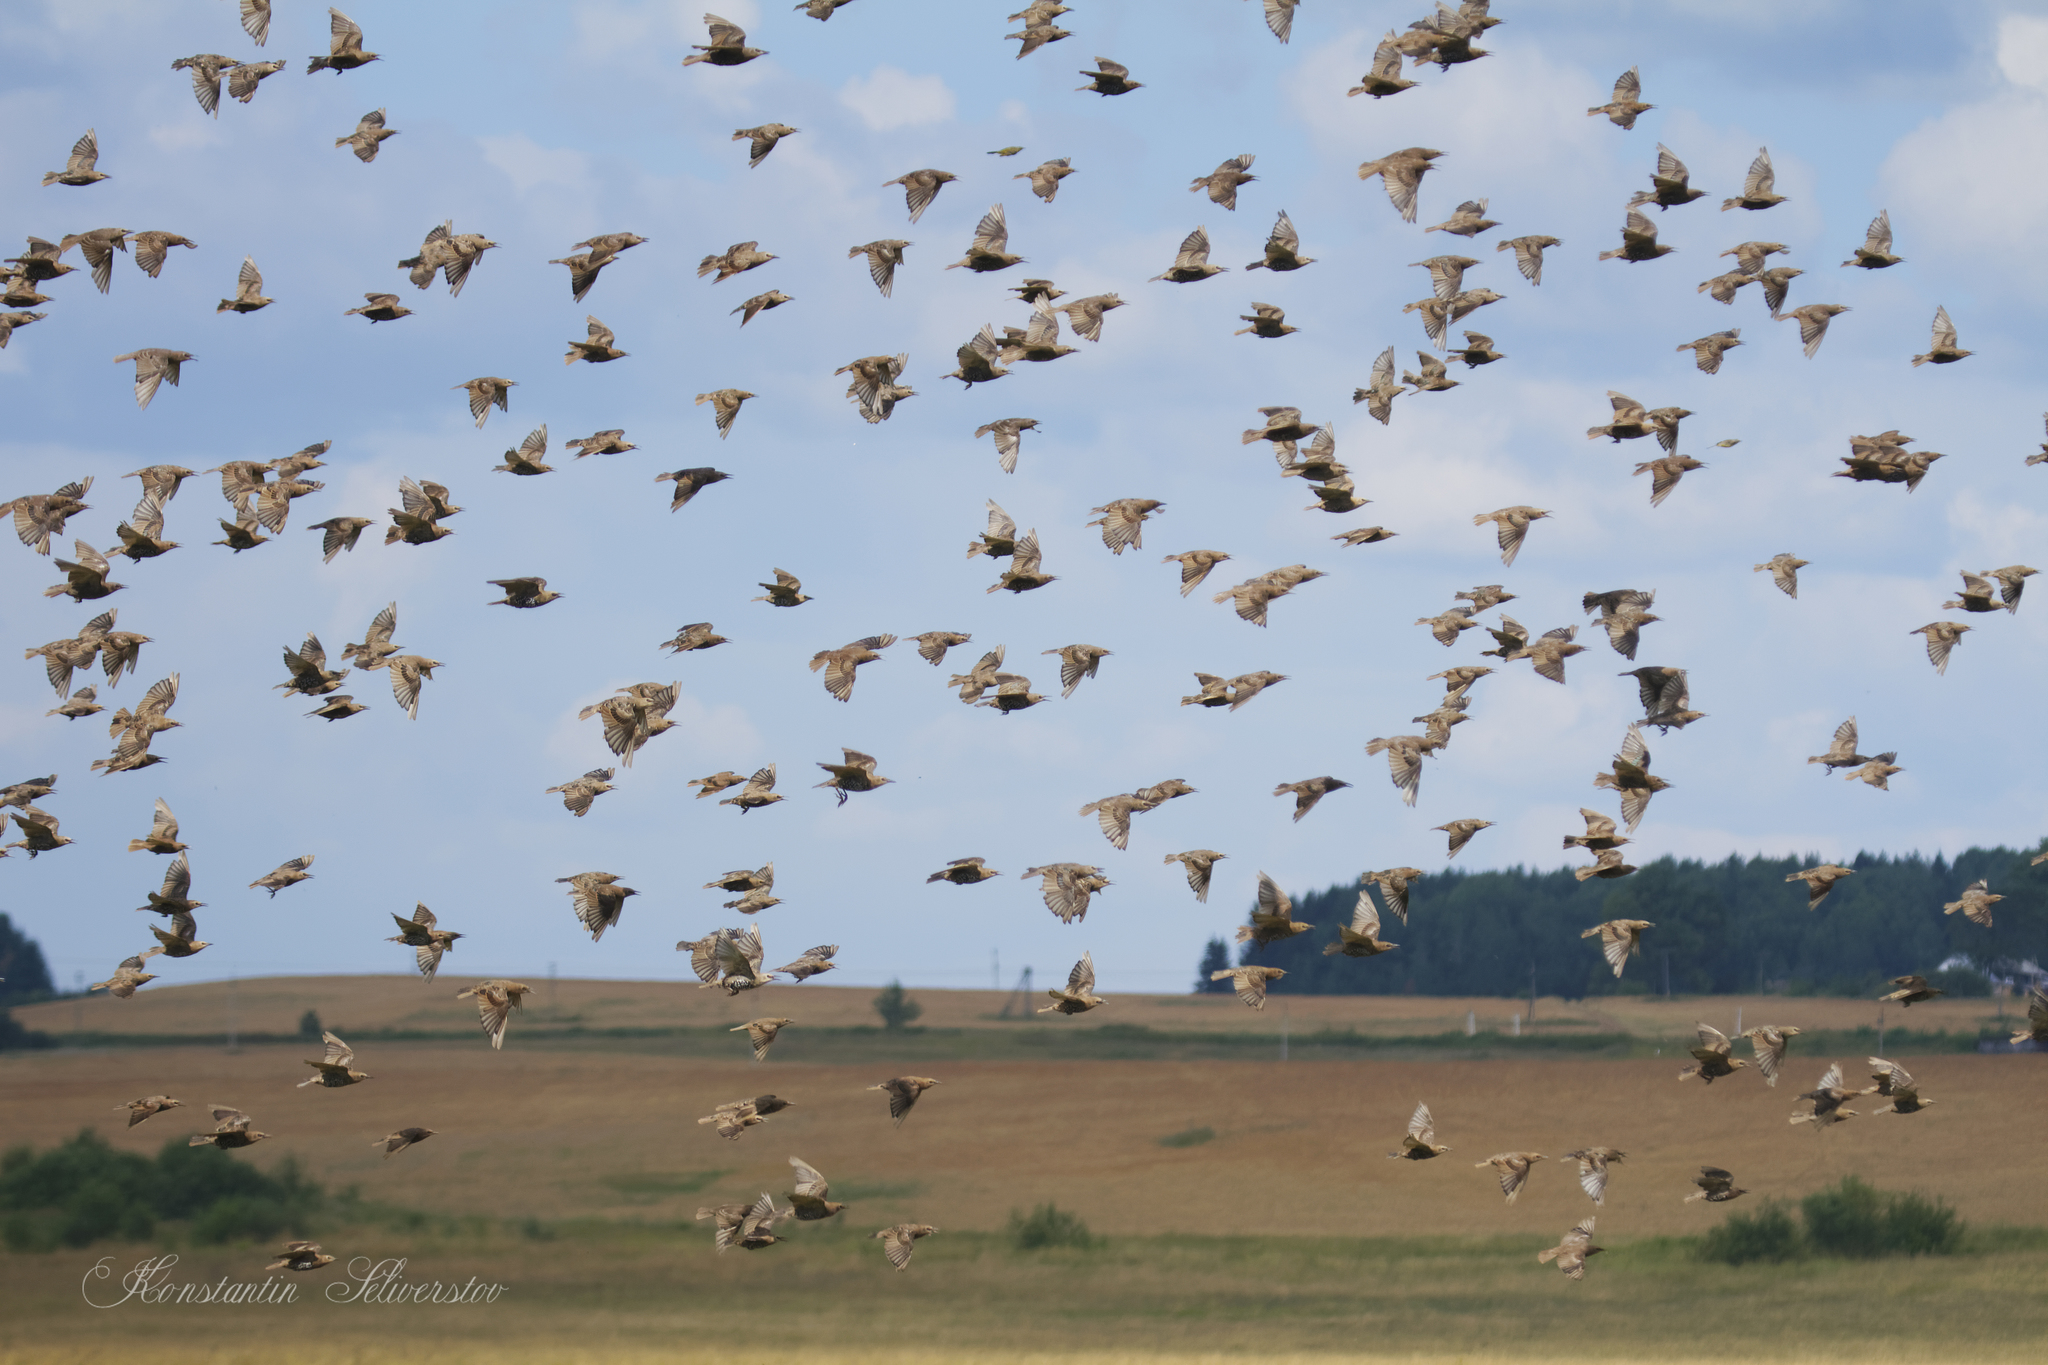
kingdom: Animalia
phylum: Chordata
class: Aves
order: Passeriformes
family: Sturnidae
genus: Sturnus
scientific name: Sturnus vulgaris
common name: Common starling
